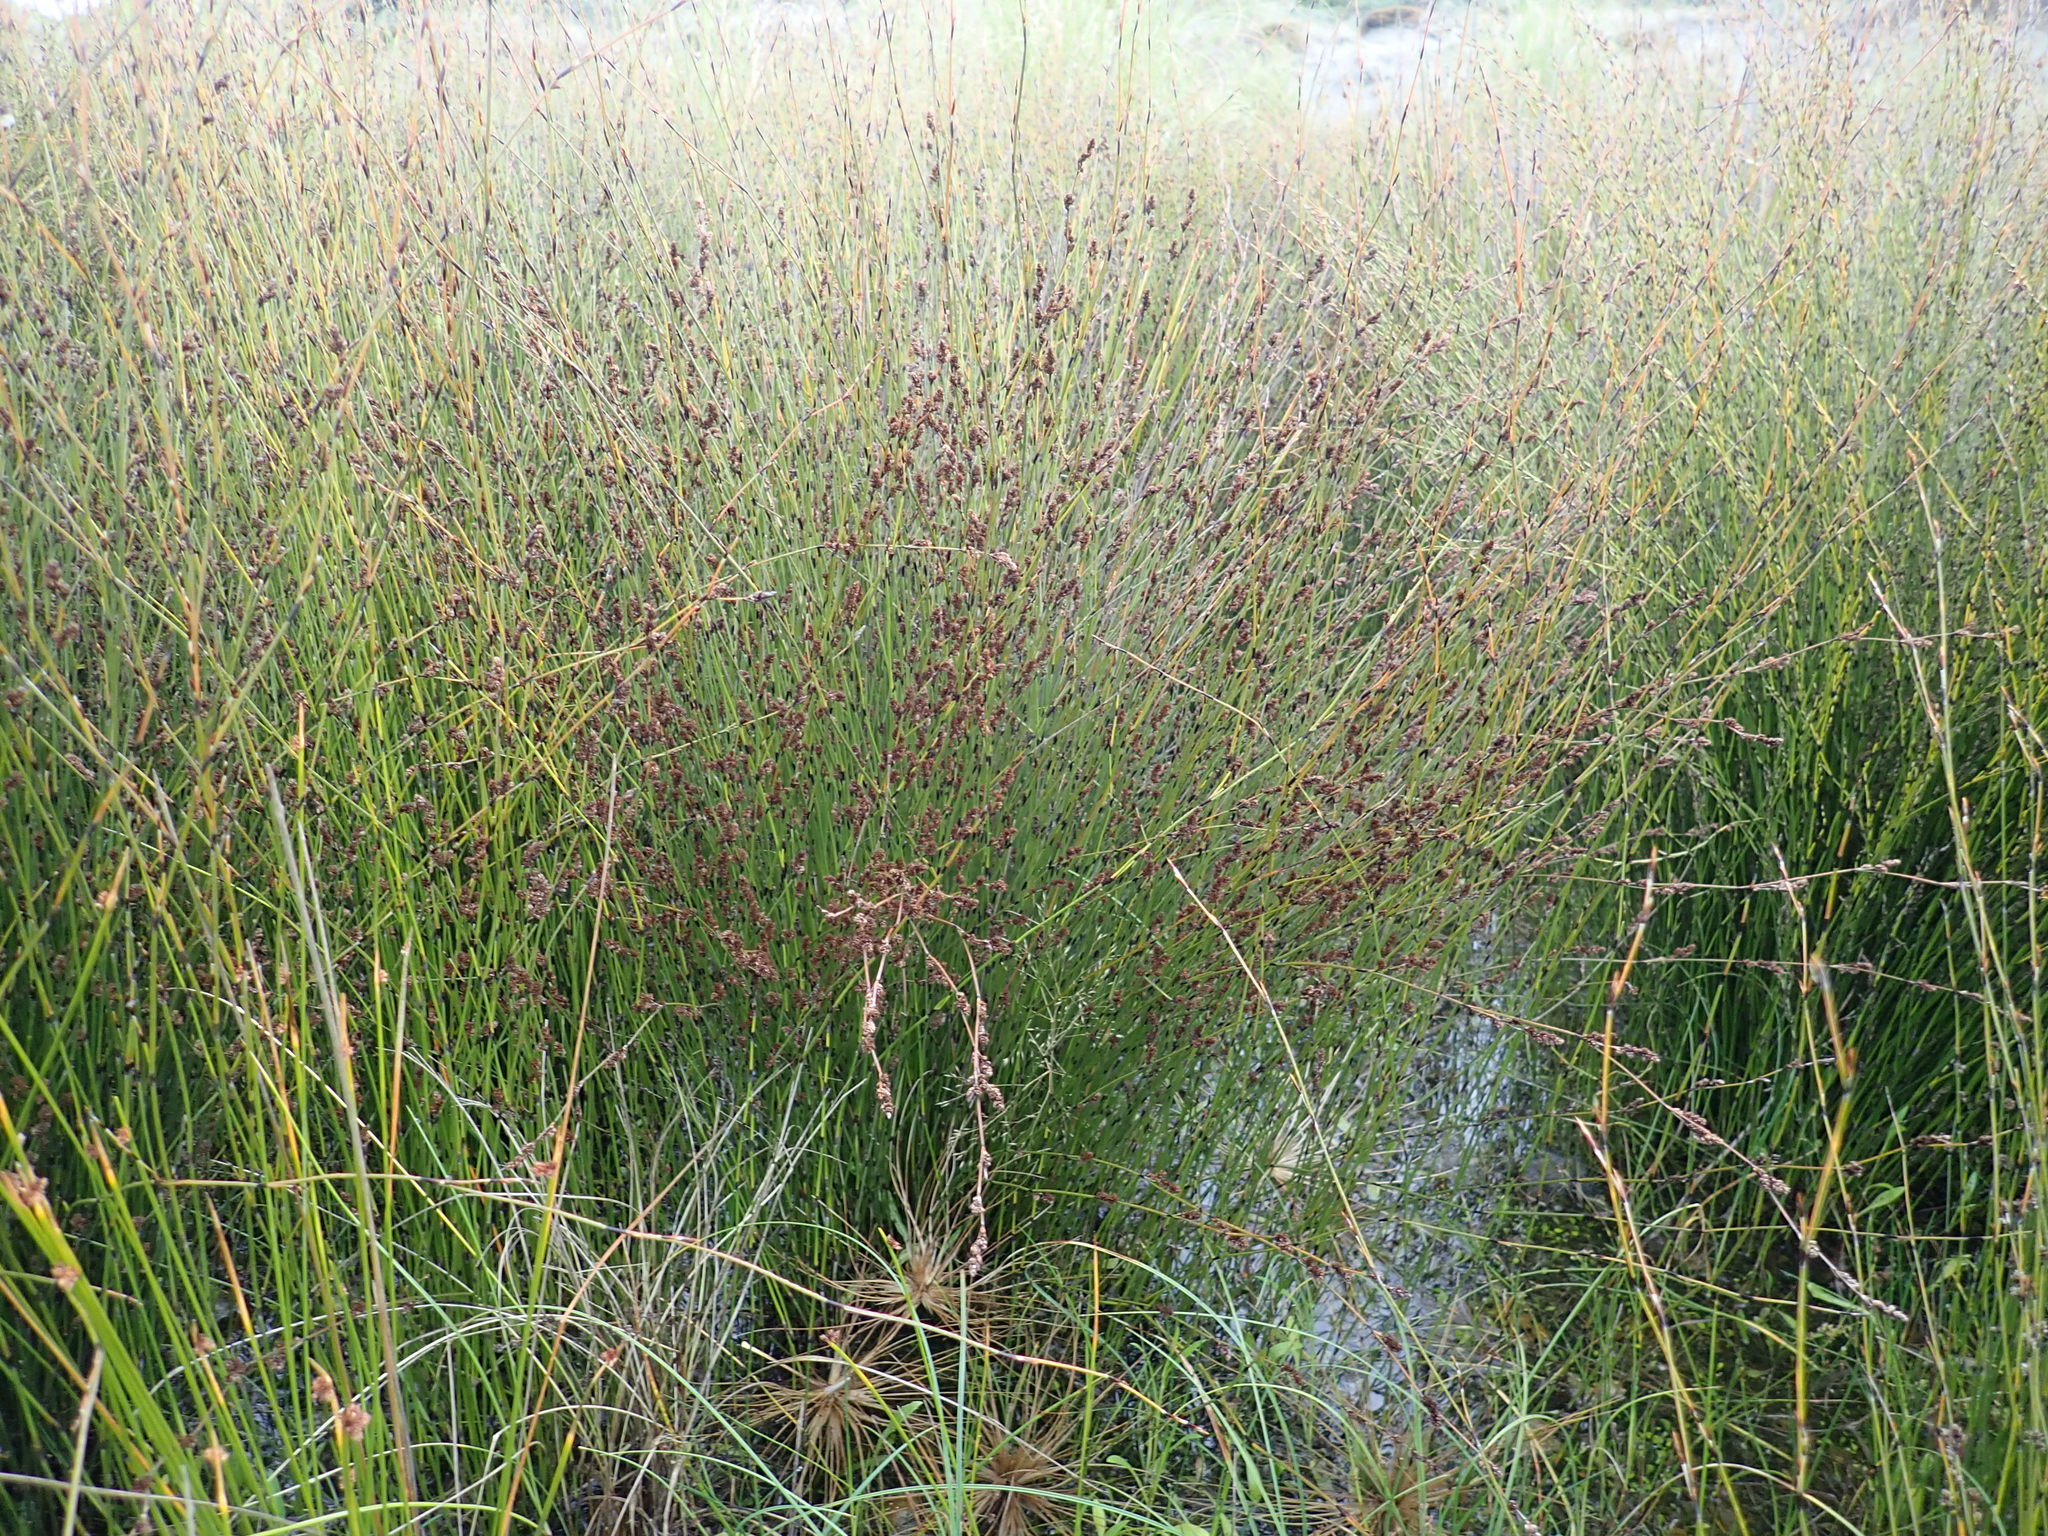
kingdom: Plantae
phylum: Tracheophyta
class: Liliopsida
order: Poales
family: Restionaceae
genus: Apodasmia
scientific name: Apodasmia similis
